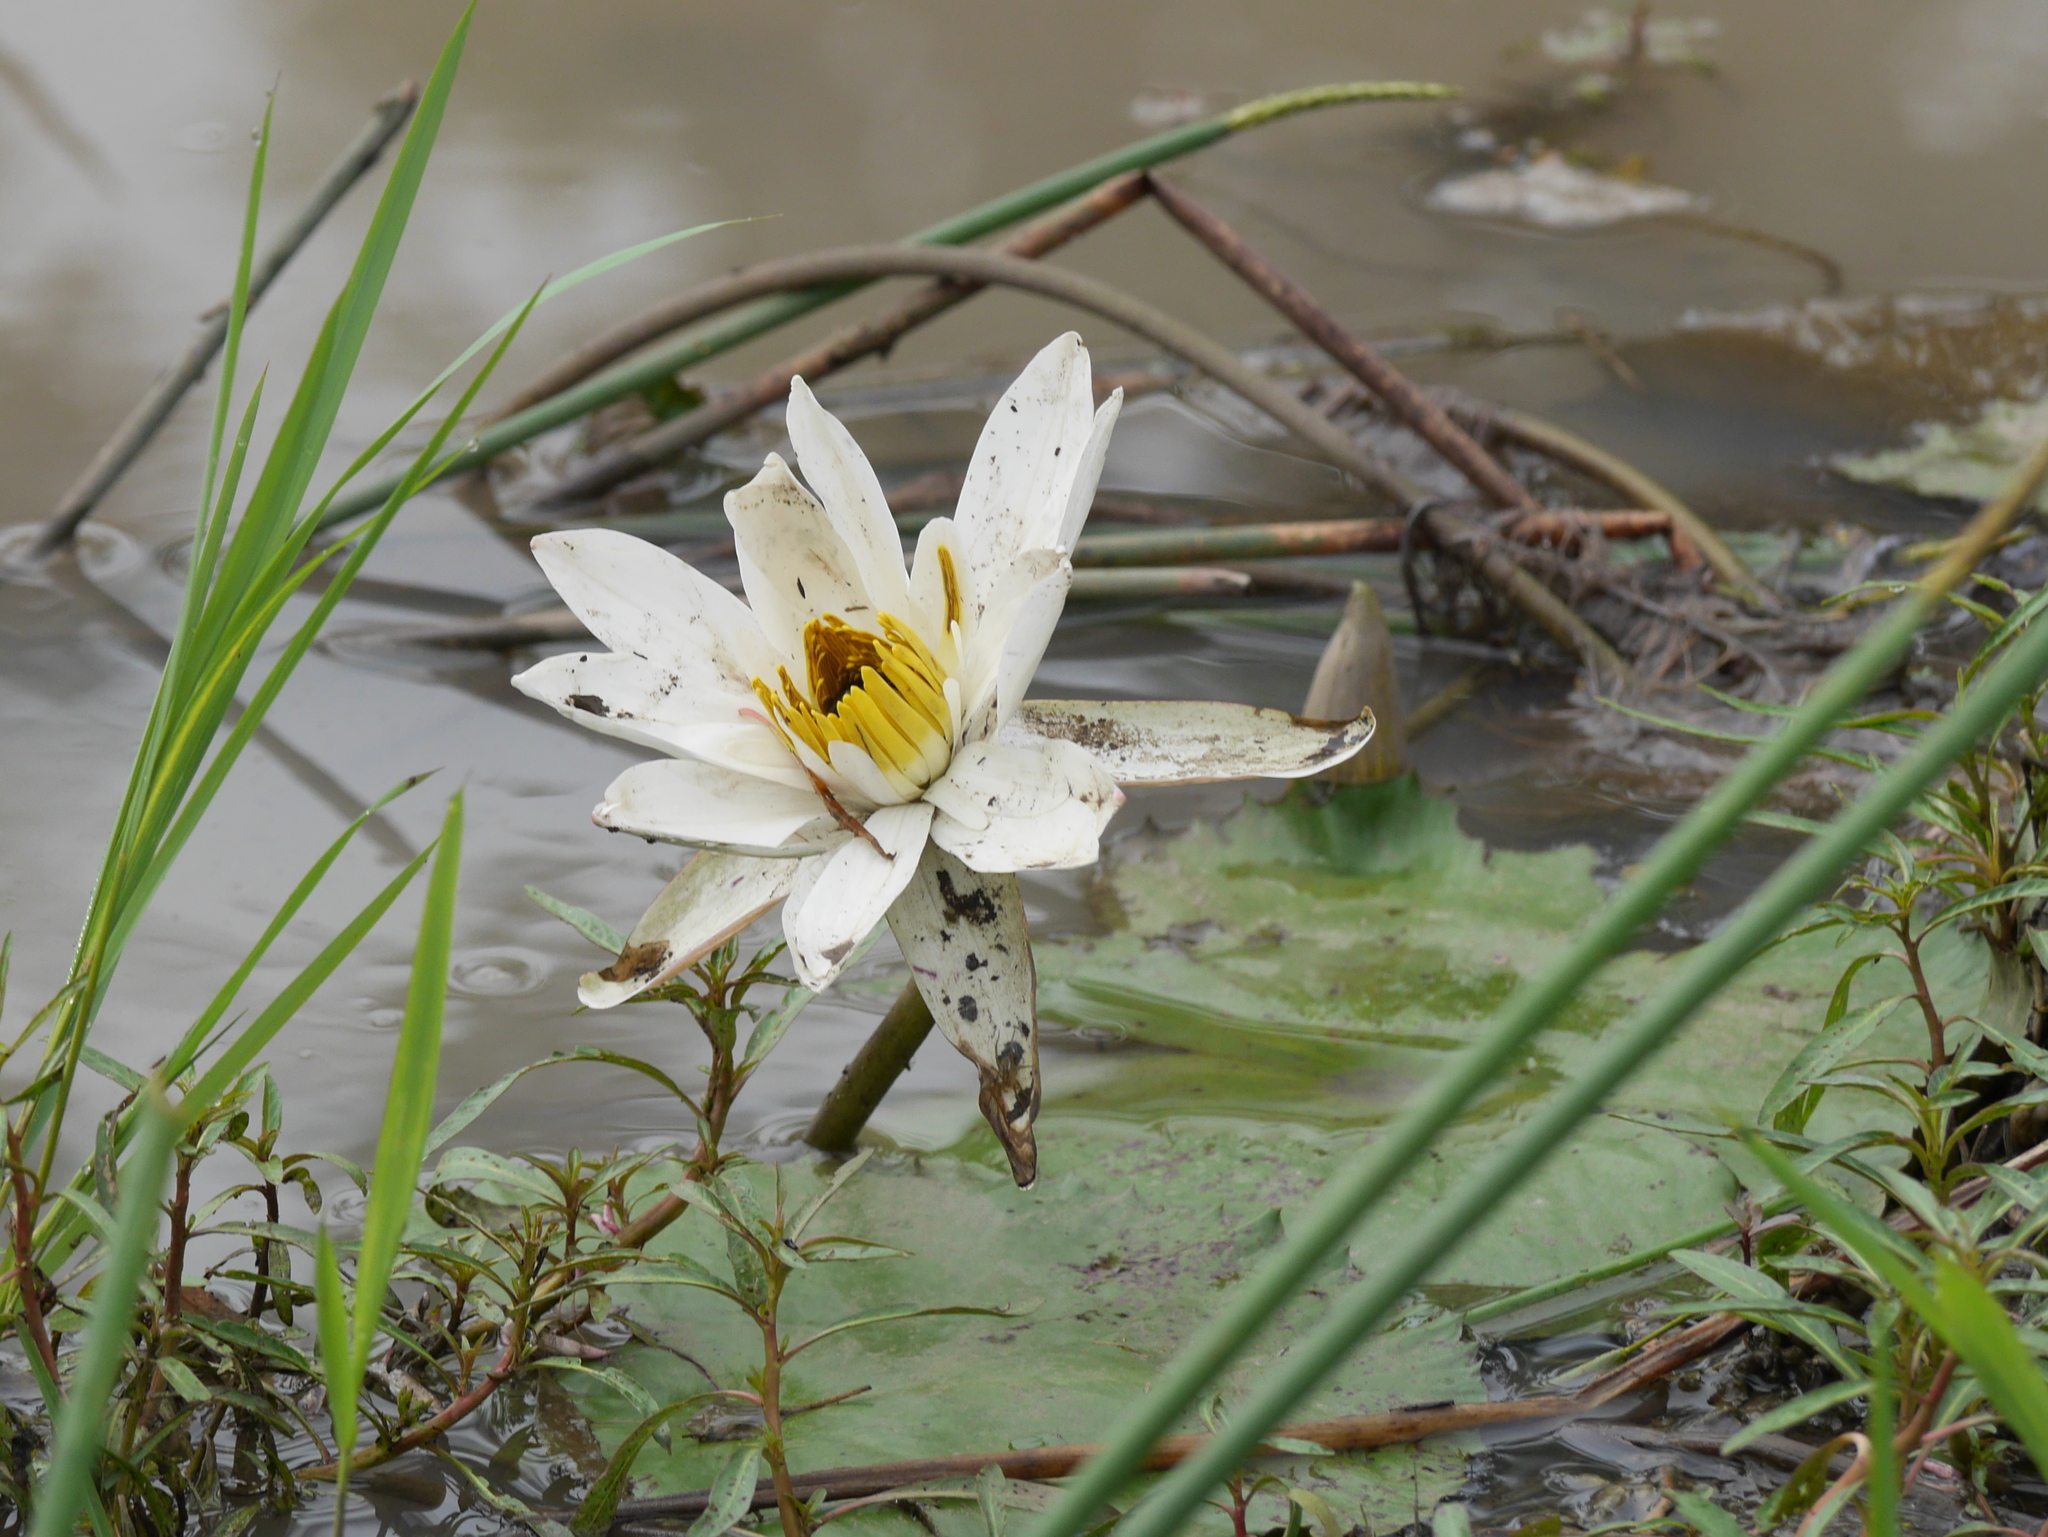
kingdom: Plantae
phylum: Tracheophyta
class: Magnoliopsida
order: Nymphaeales
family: Nymphaeaceae
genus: Nymphaea
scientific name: Nymphaea lotus
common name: White egyptian lotus
